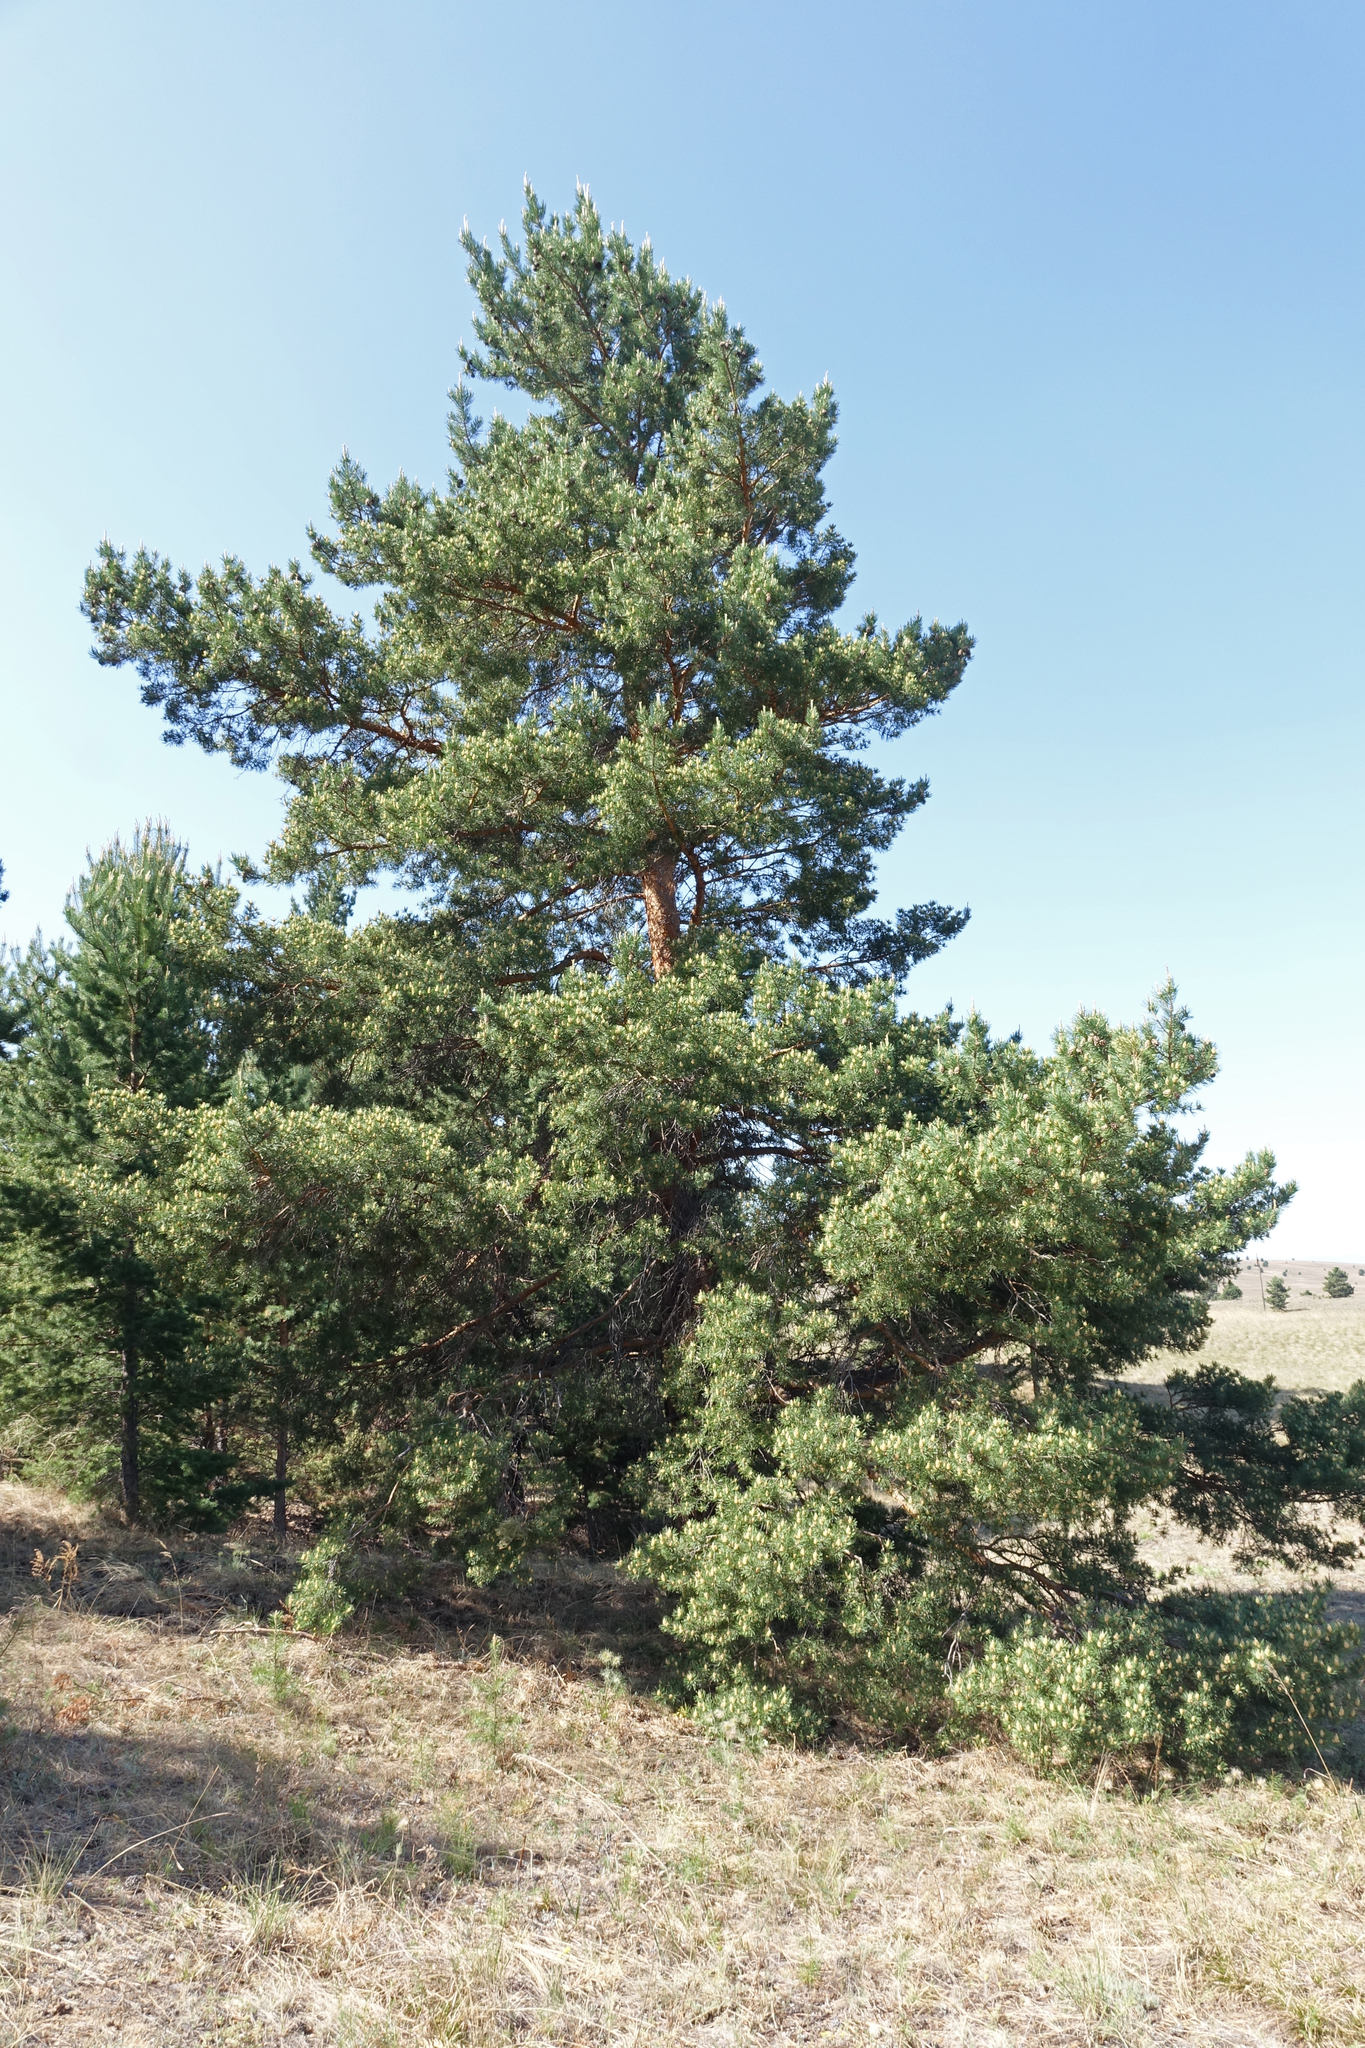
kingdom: Plantae
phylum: Tracheophyta
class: Pinopsida
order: Pinales
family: Pinaceae
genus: Pinus
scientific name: Pinus sylvestris
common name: Scots pine
